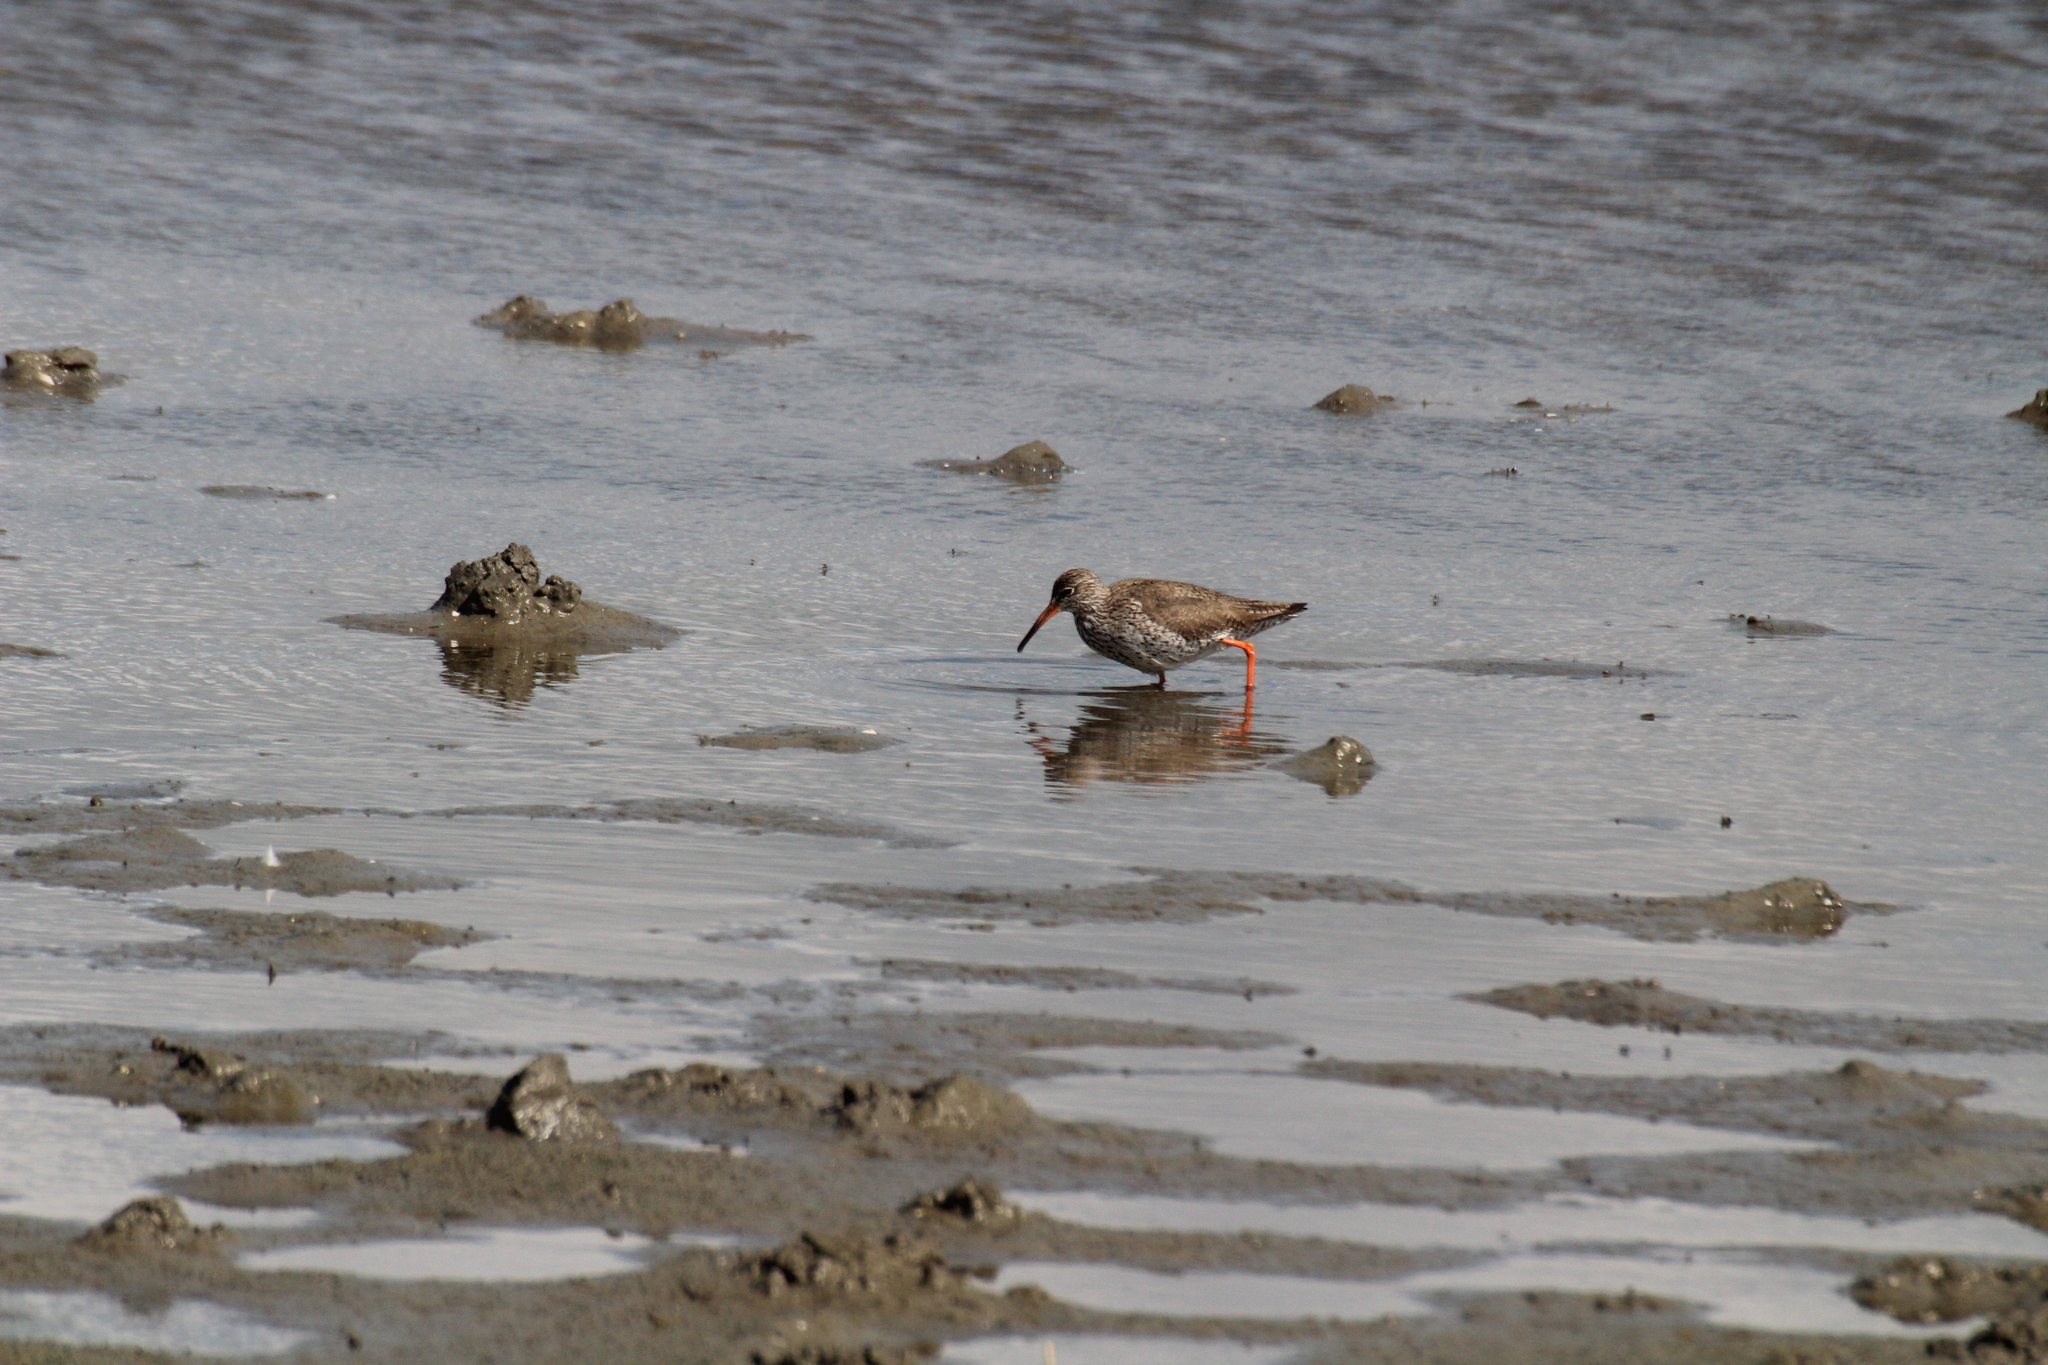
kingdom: Animalia
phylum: Chordata
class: Aves
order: Charadriiformes
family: Scolopacidae
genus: Tringa
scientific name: Tringa totanus
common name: Common redshank
